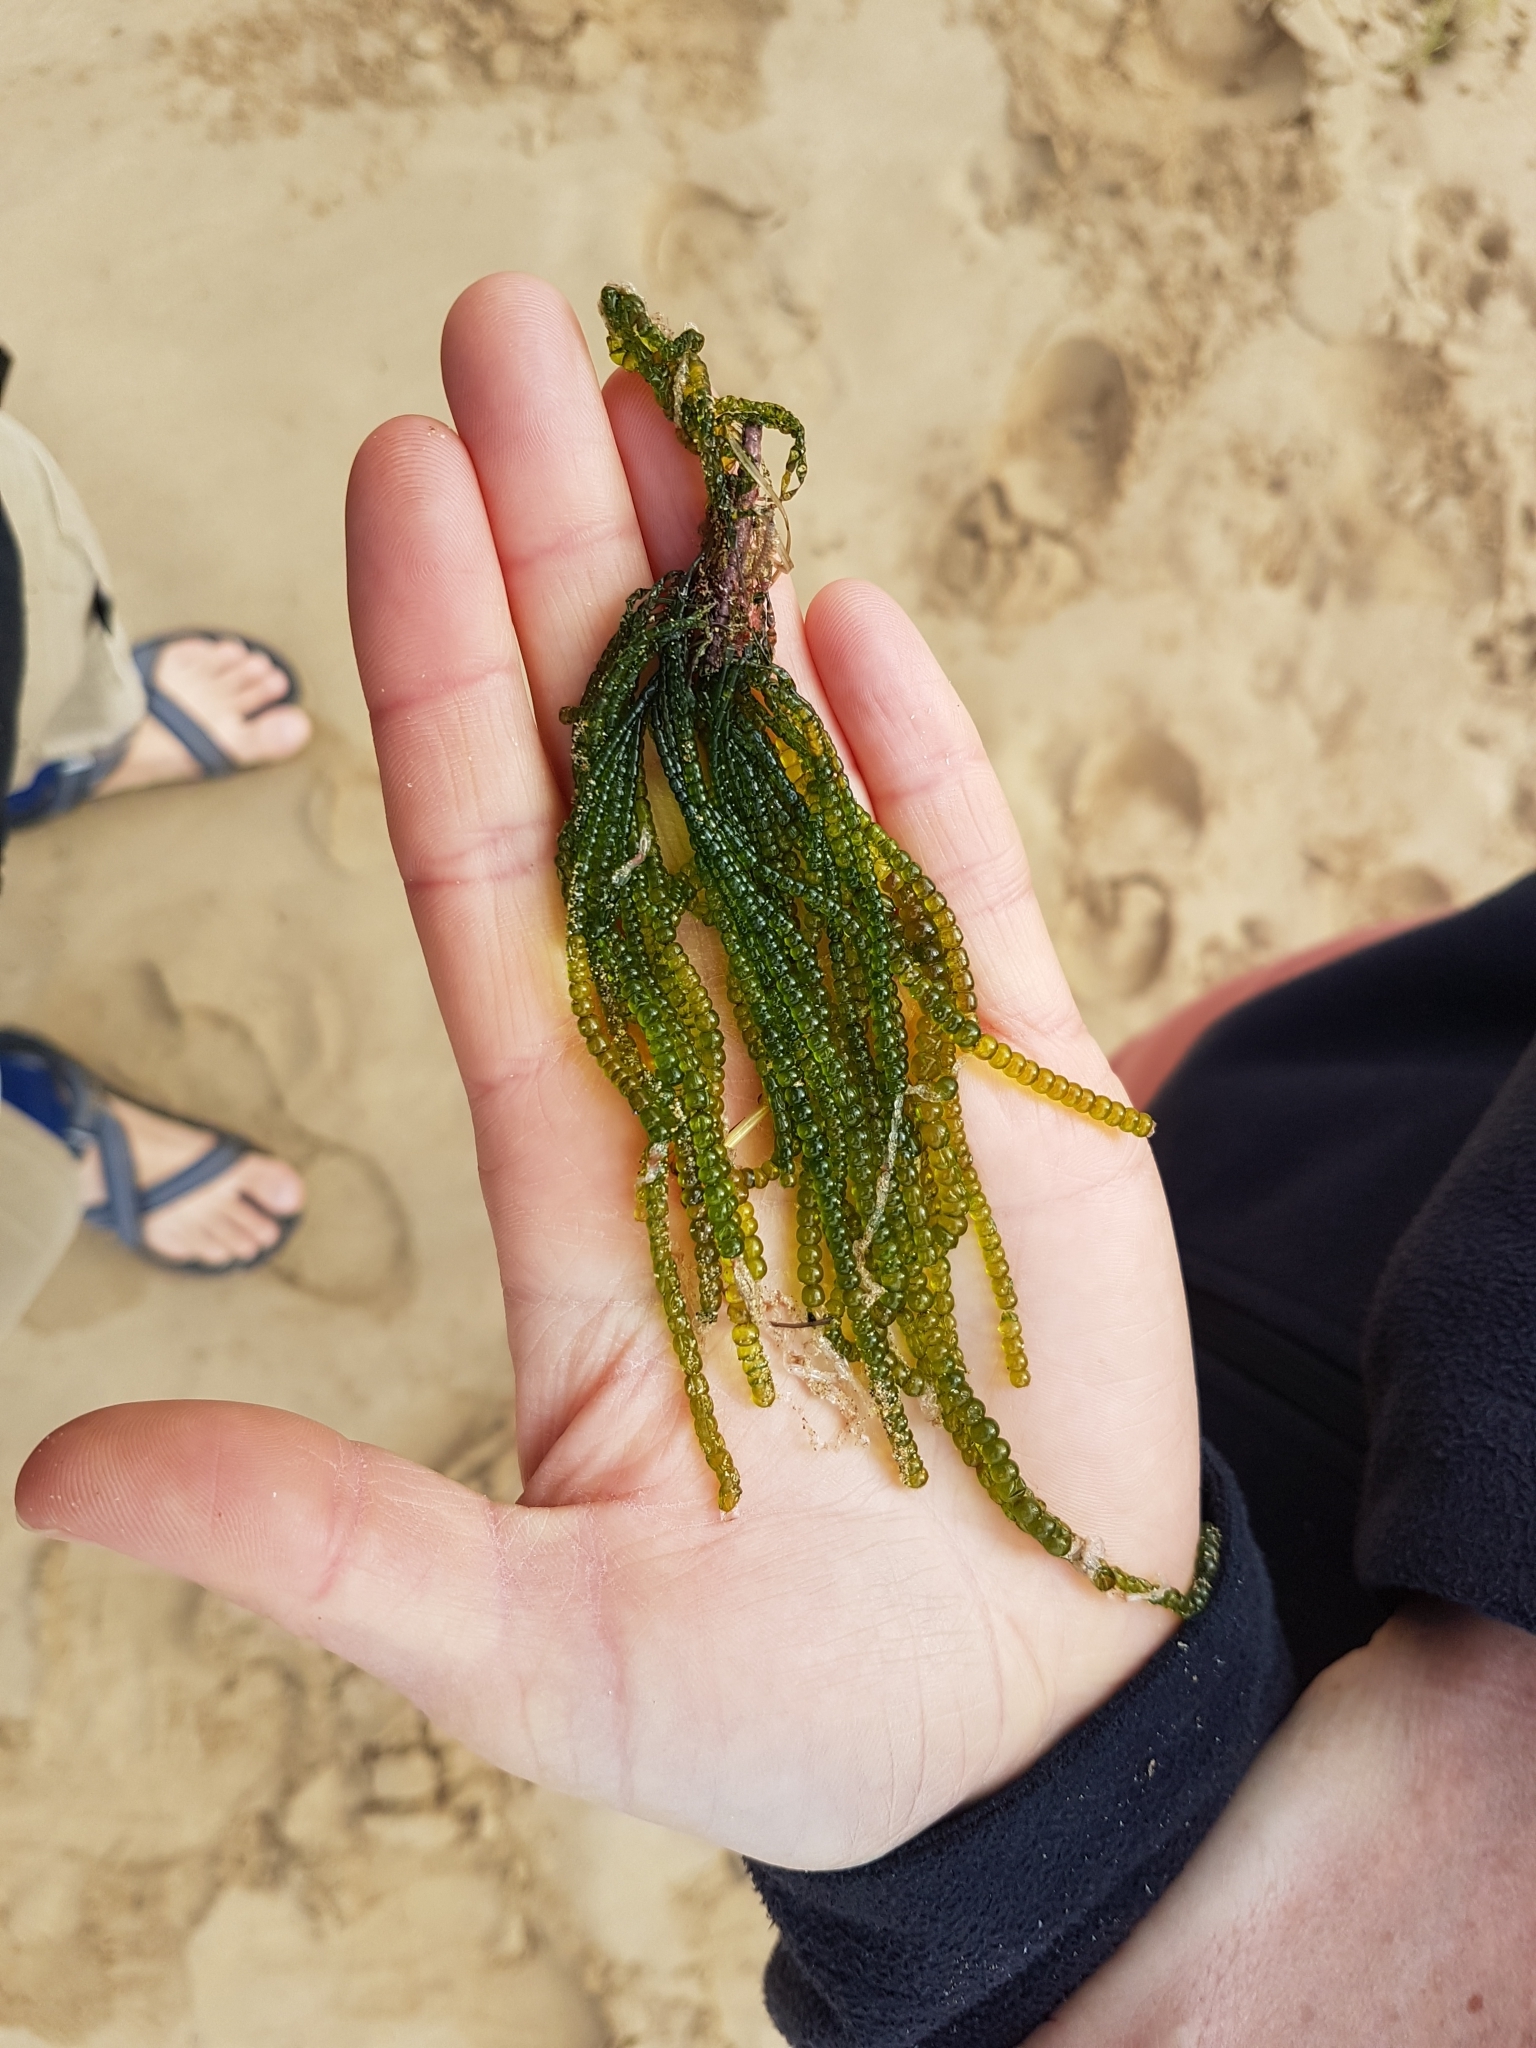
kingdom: Plantae
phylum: Chlorophyta
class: Ulvophyceae
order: Cladophorales
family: Cladophoraceae
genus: Chaetomorpha
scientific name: Chaetomorpha coliformis
